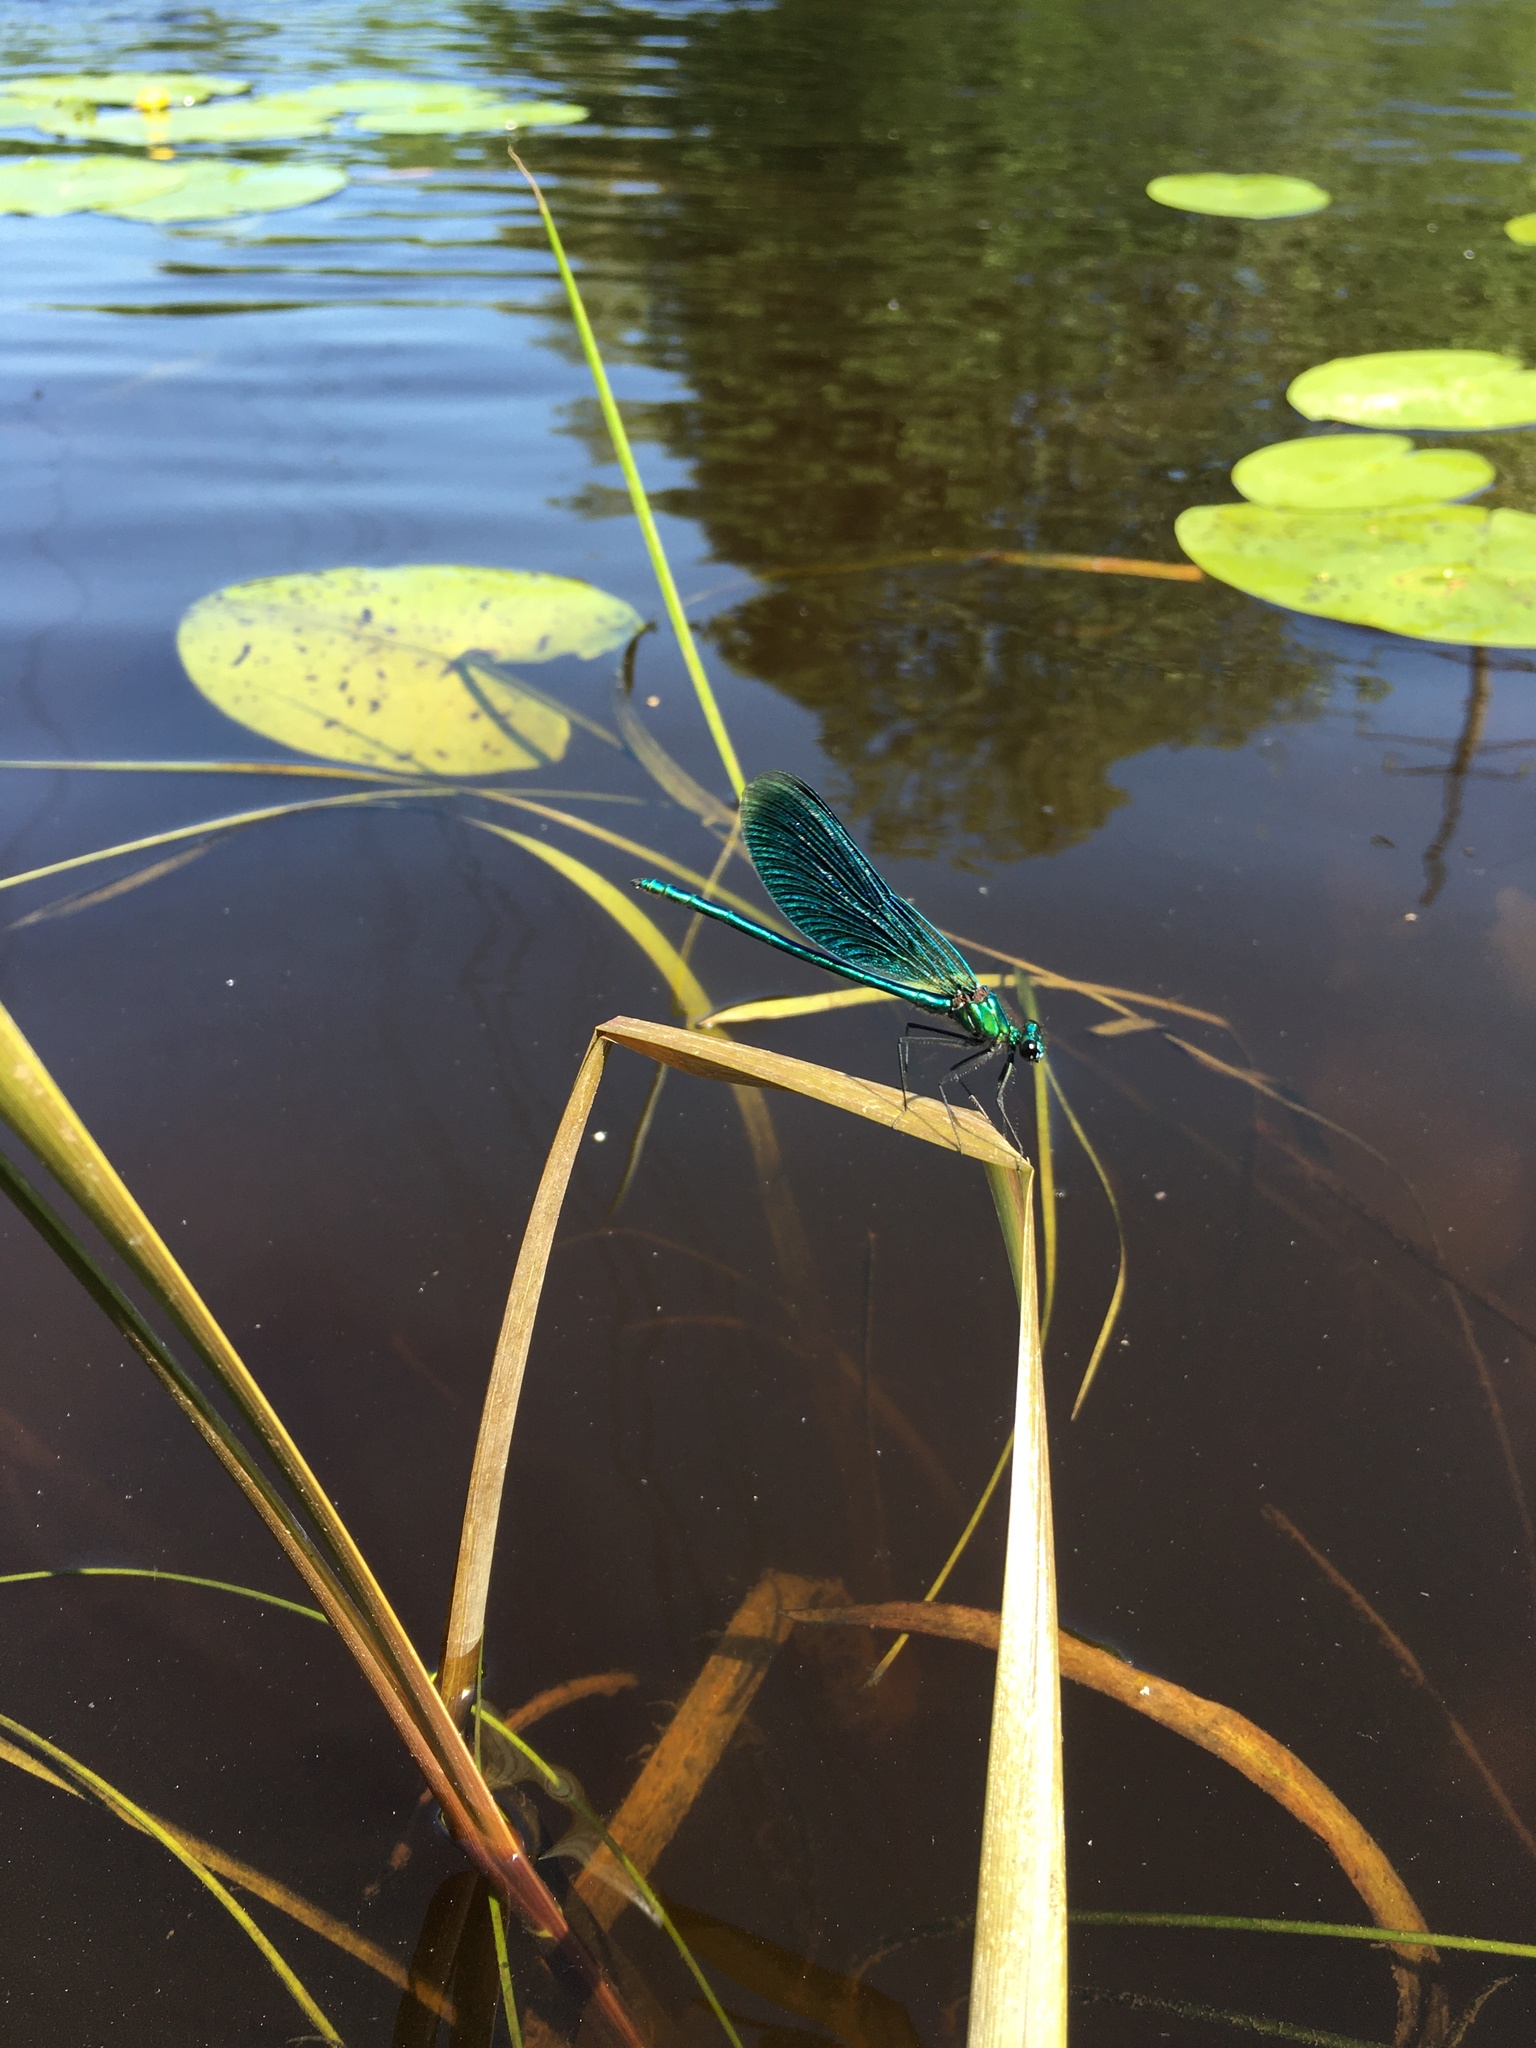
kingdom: Animalia
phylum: Arthropoda
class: Insecta
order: Odonata
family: Calopterygidae
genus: Calopteryx
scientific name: Calopteryx splendens
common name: Banded demoiselle
